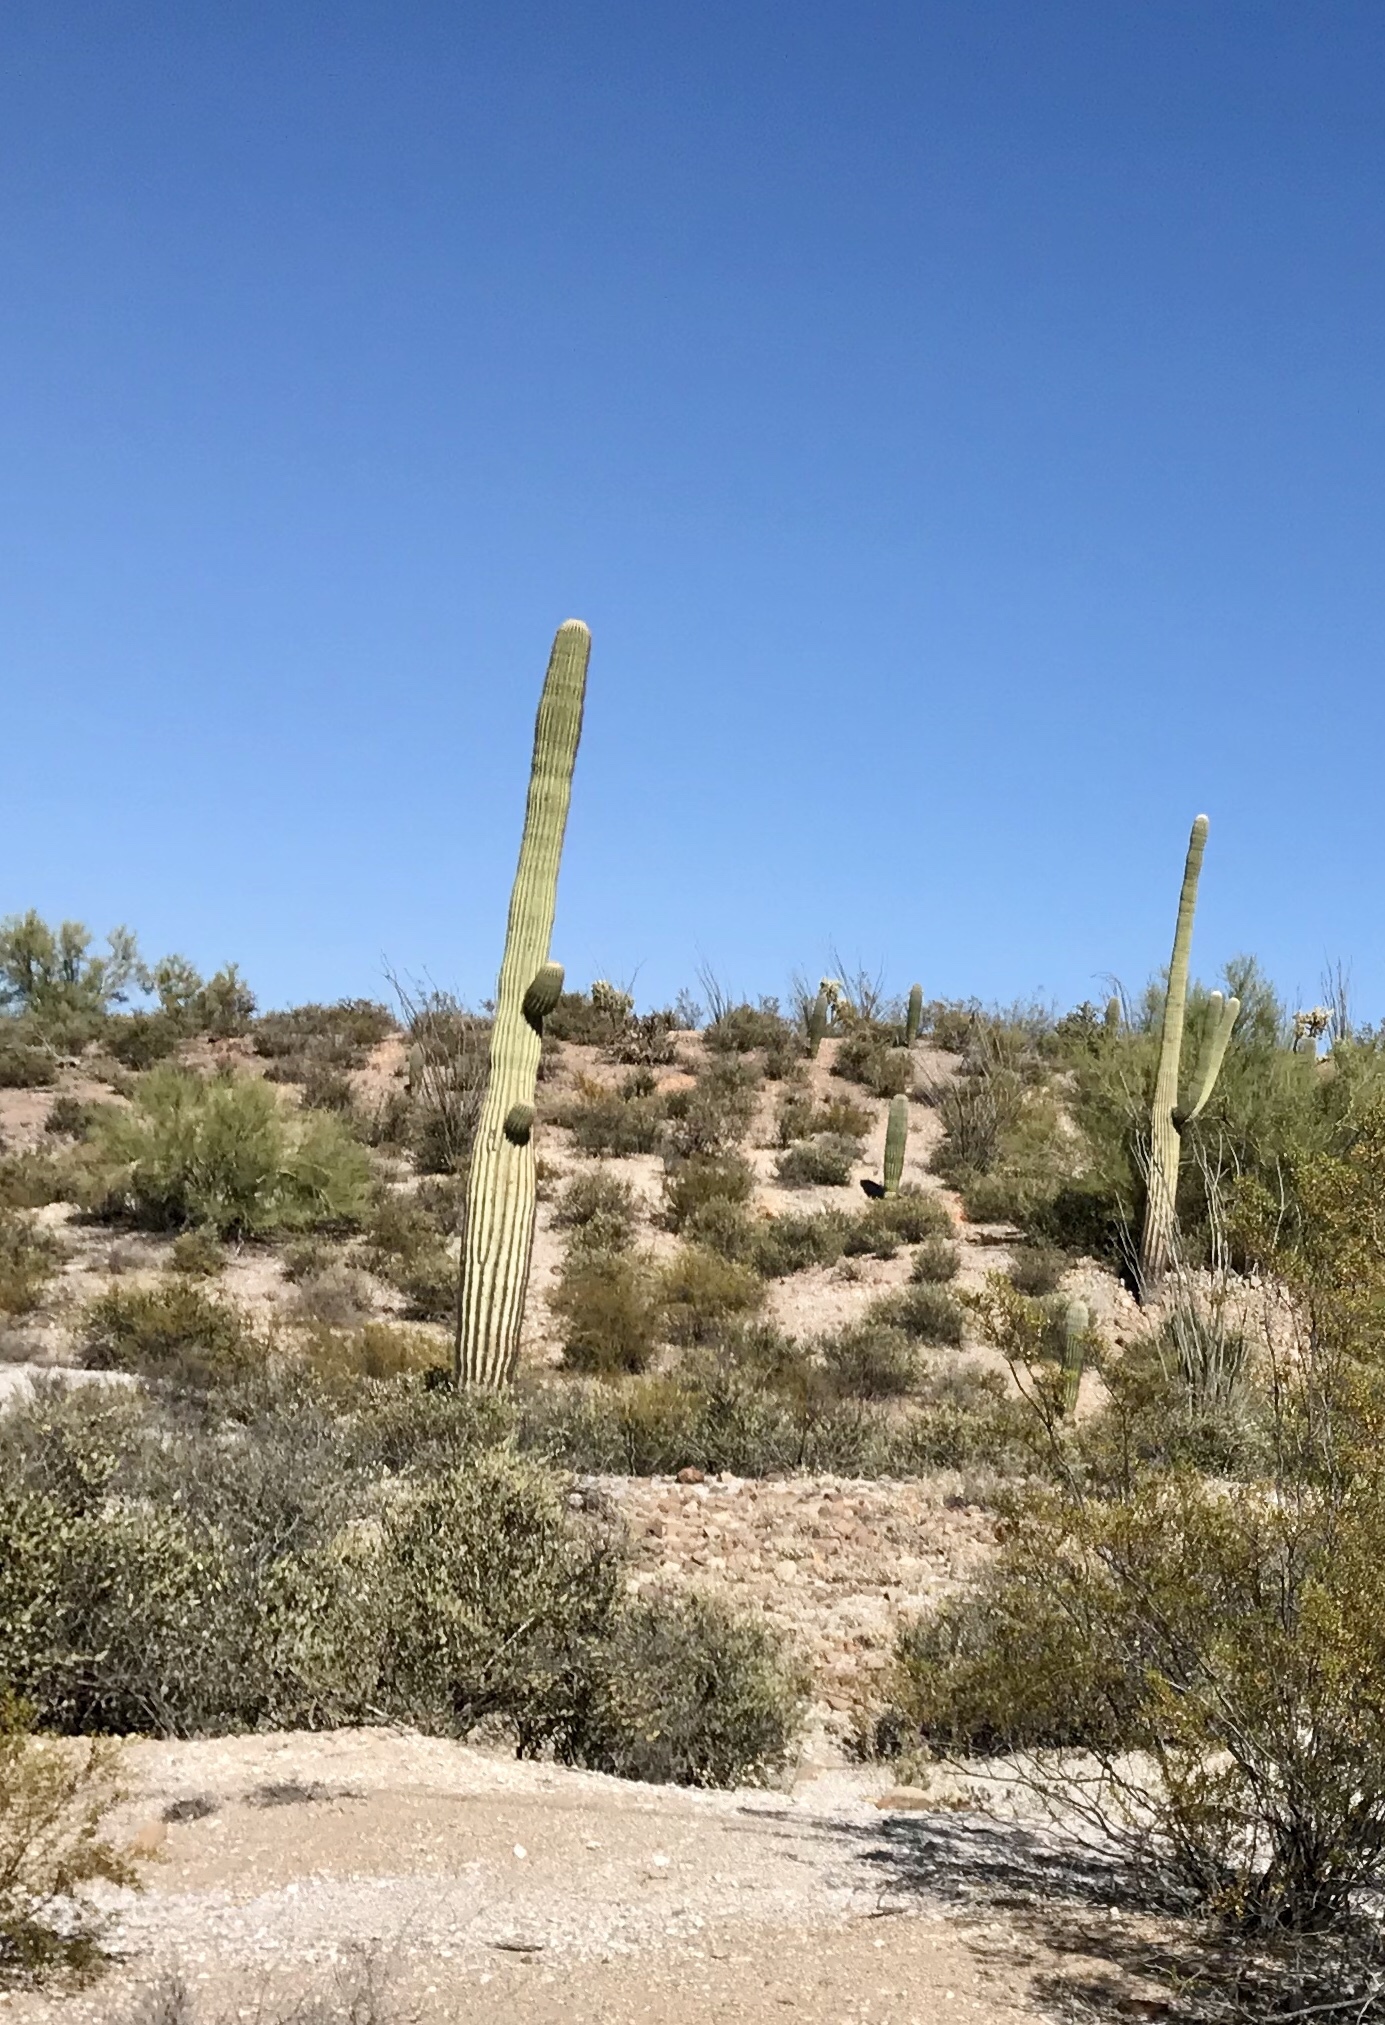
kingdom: Plantae
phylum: Tracheophyta
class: Magnoliopsida
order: Caryophyllales
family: Cactaceae
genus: Carnegiea
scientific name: Carnegiea gigantea
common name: Saguaro
